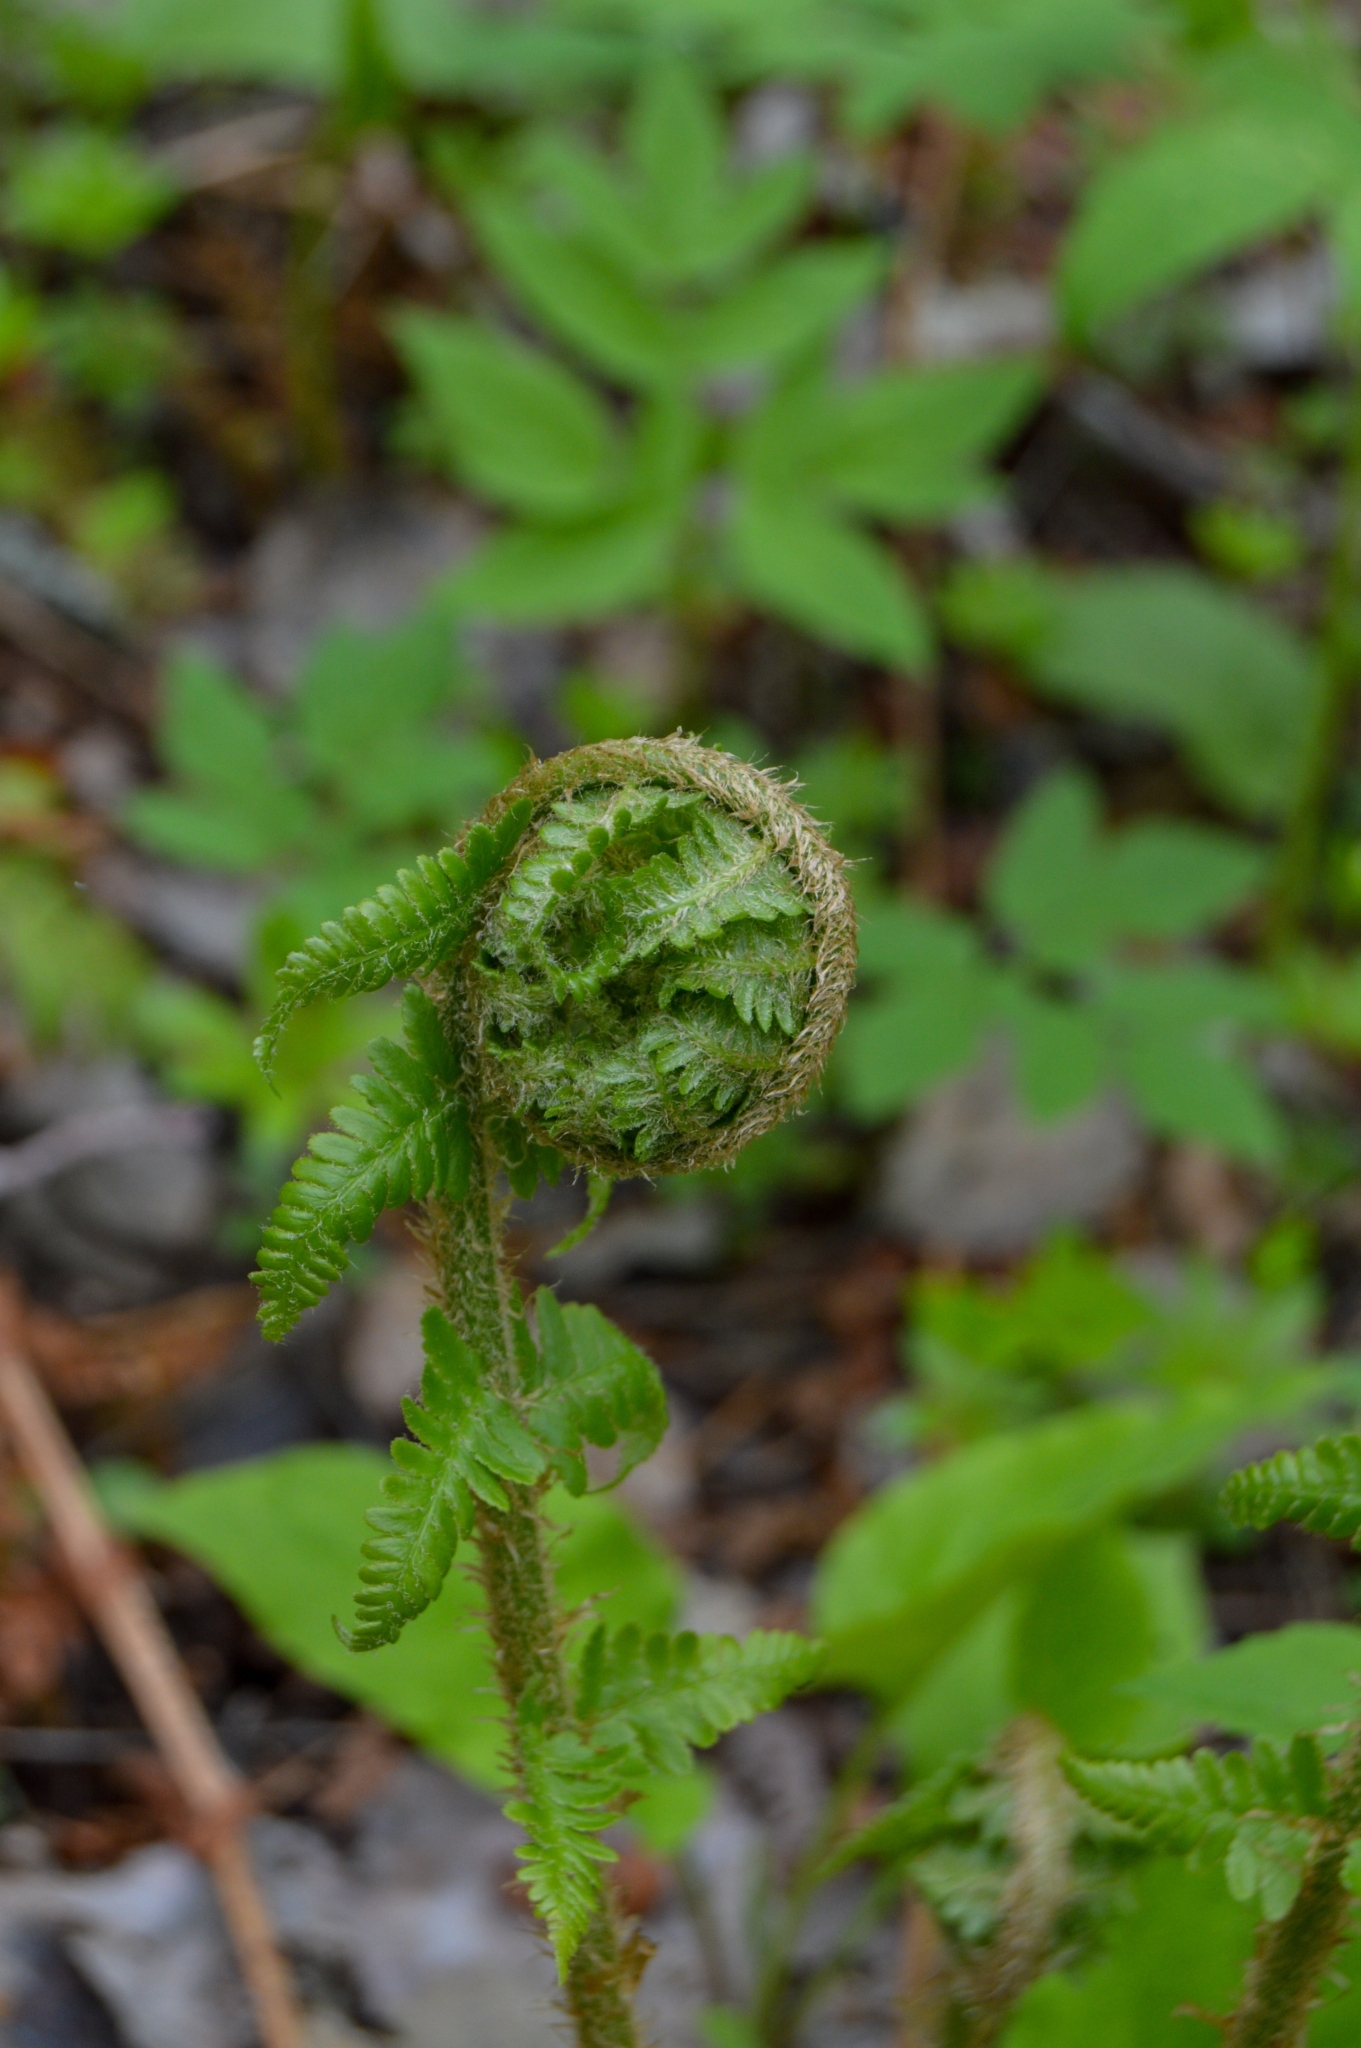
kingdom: Plantae
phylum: Tracheophyta
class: Polypodiopsida
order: Polypodiales
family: Dryopteridaceae
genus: Dryopteris
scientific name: Dryopteris filix-mas
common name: Male fern
